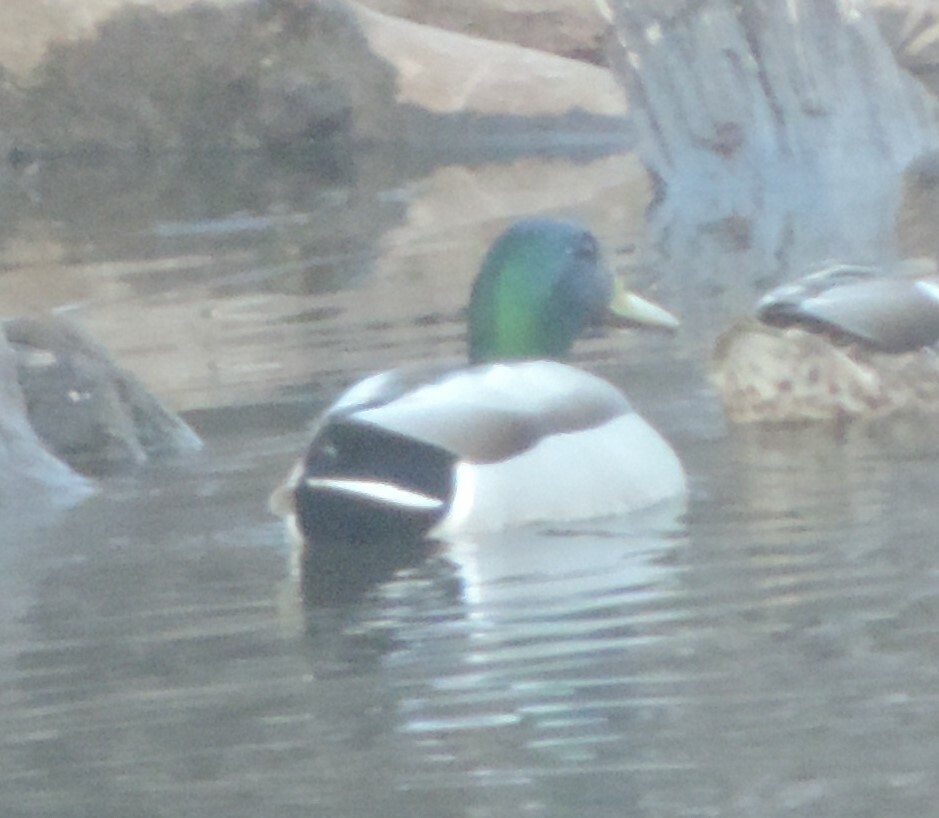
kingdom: Animalia
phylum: Chordata
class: Aves
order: Anseriformes
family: Anatidae
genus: Anas
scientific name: Anas platyrhynchos
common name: Mallard
